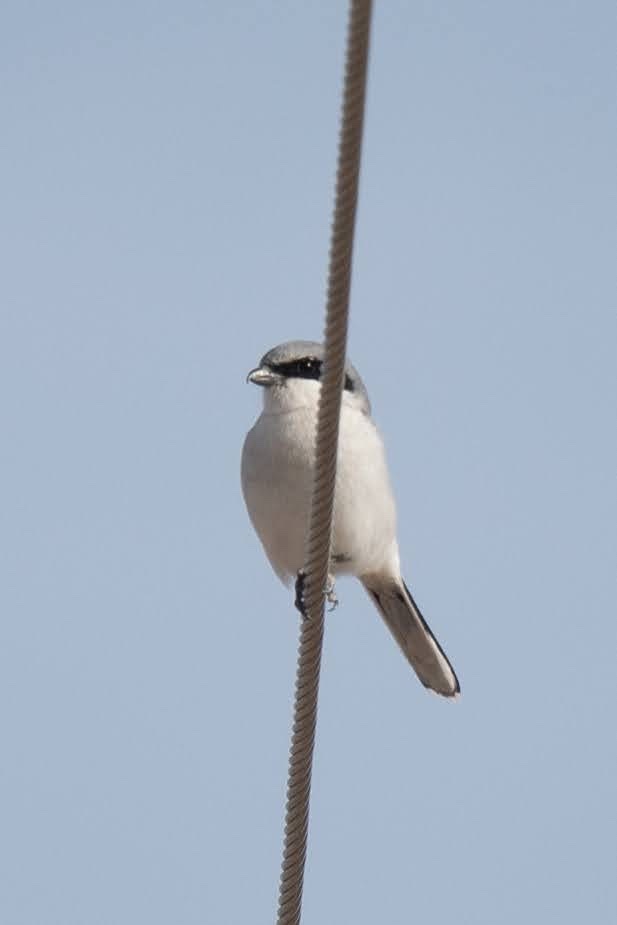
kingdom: Animalia
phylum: Chordata
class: Aves
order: Passeriformes
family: Laniidae
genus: Lanius
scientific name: Lanius ludovicianus
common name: Loggerhead shrike
